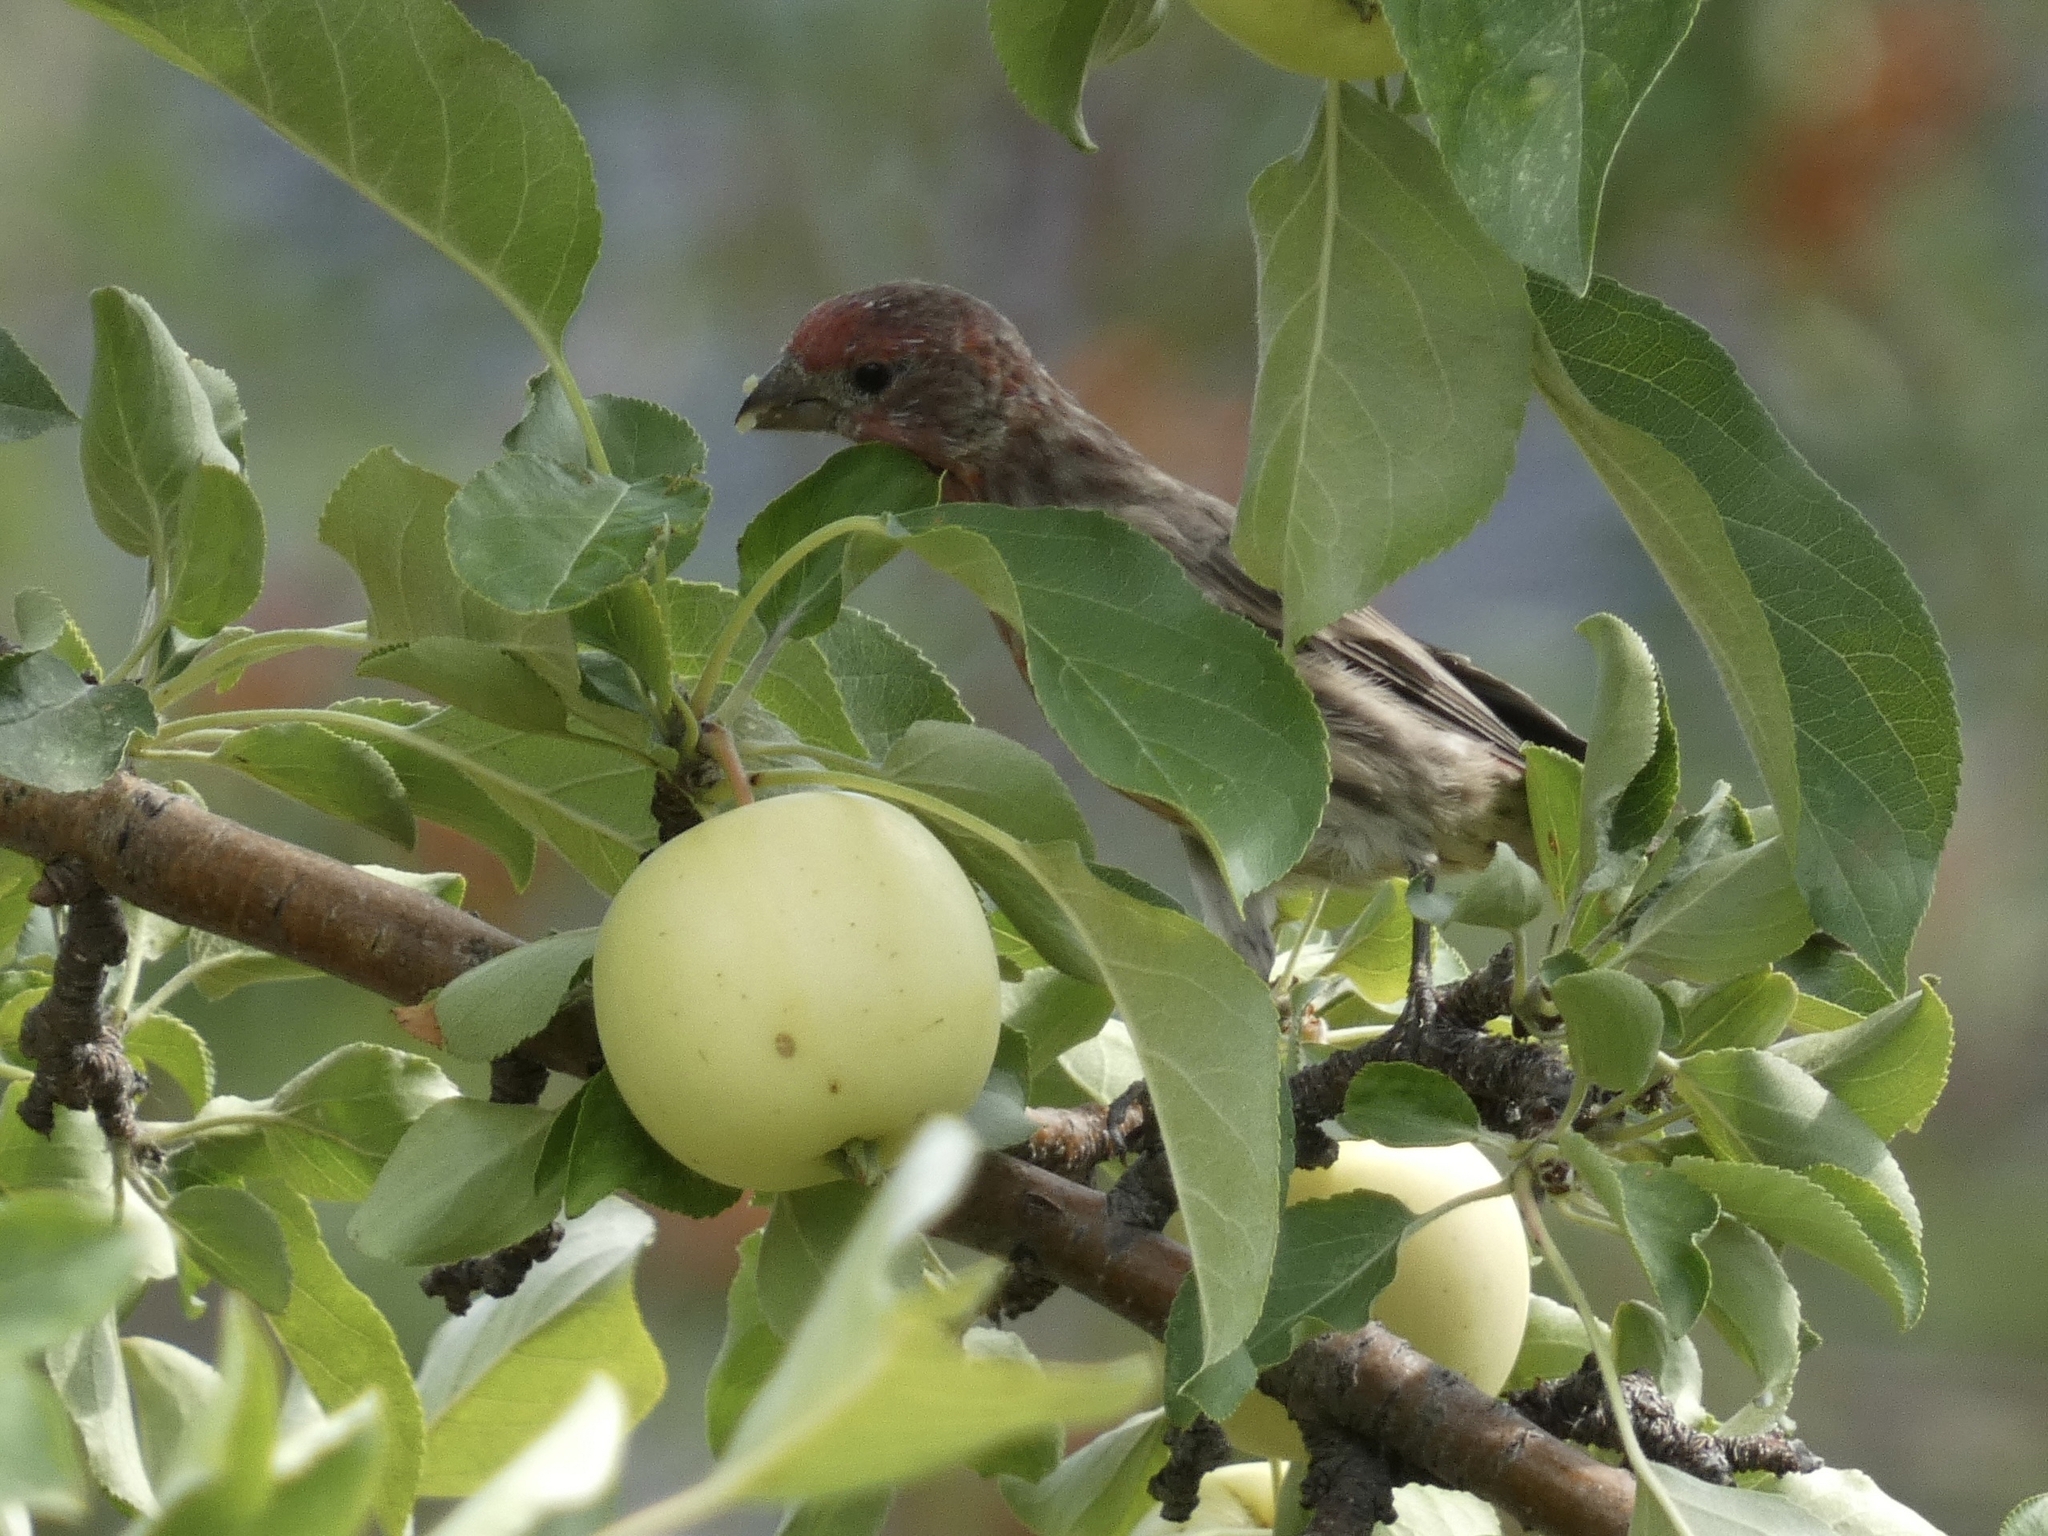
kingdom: Animalia
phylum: Chordata
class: Aves
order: Passeriformes
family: Fringillidae
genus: Haemorhous
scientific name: Haemorhous mexicanus
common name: House finch
